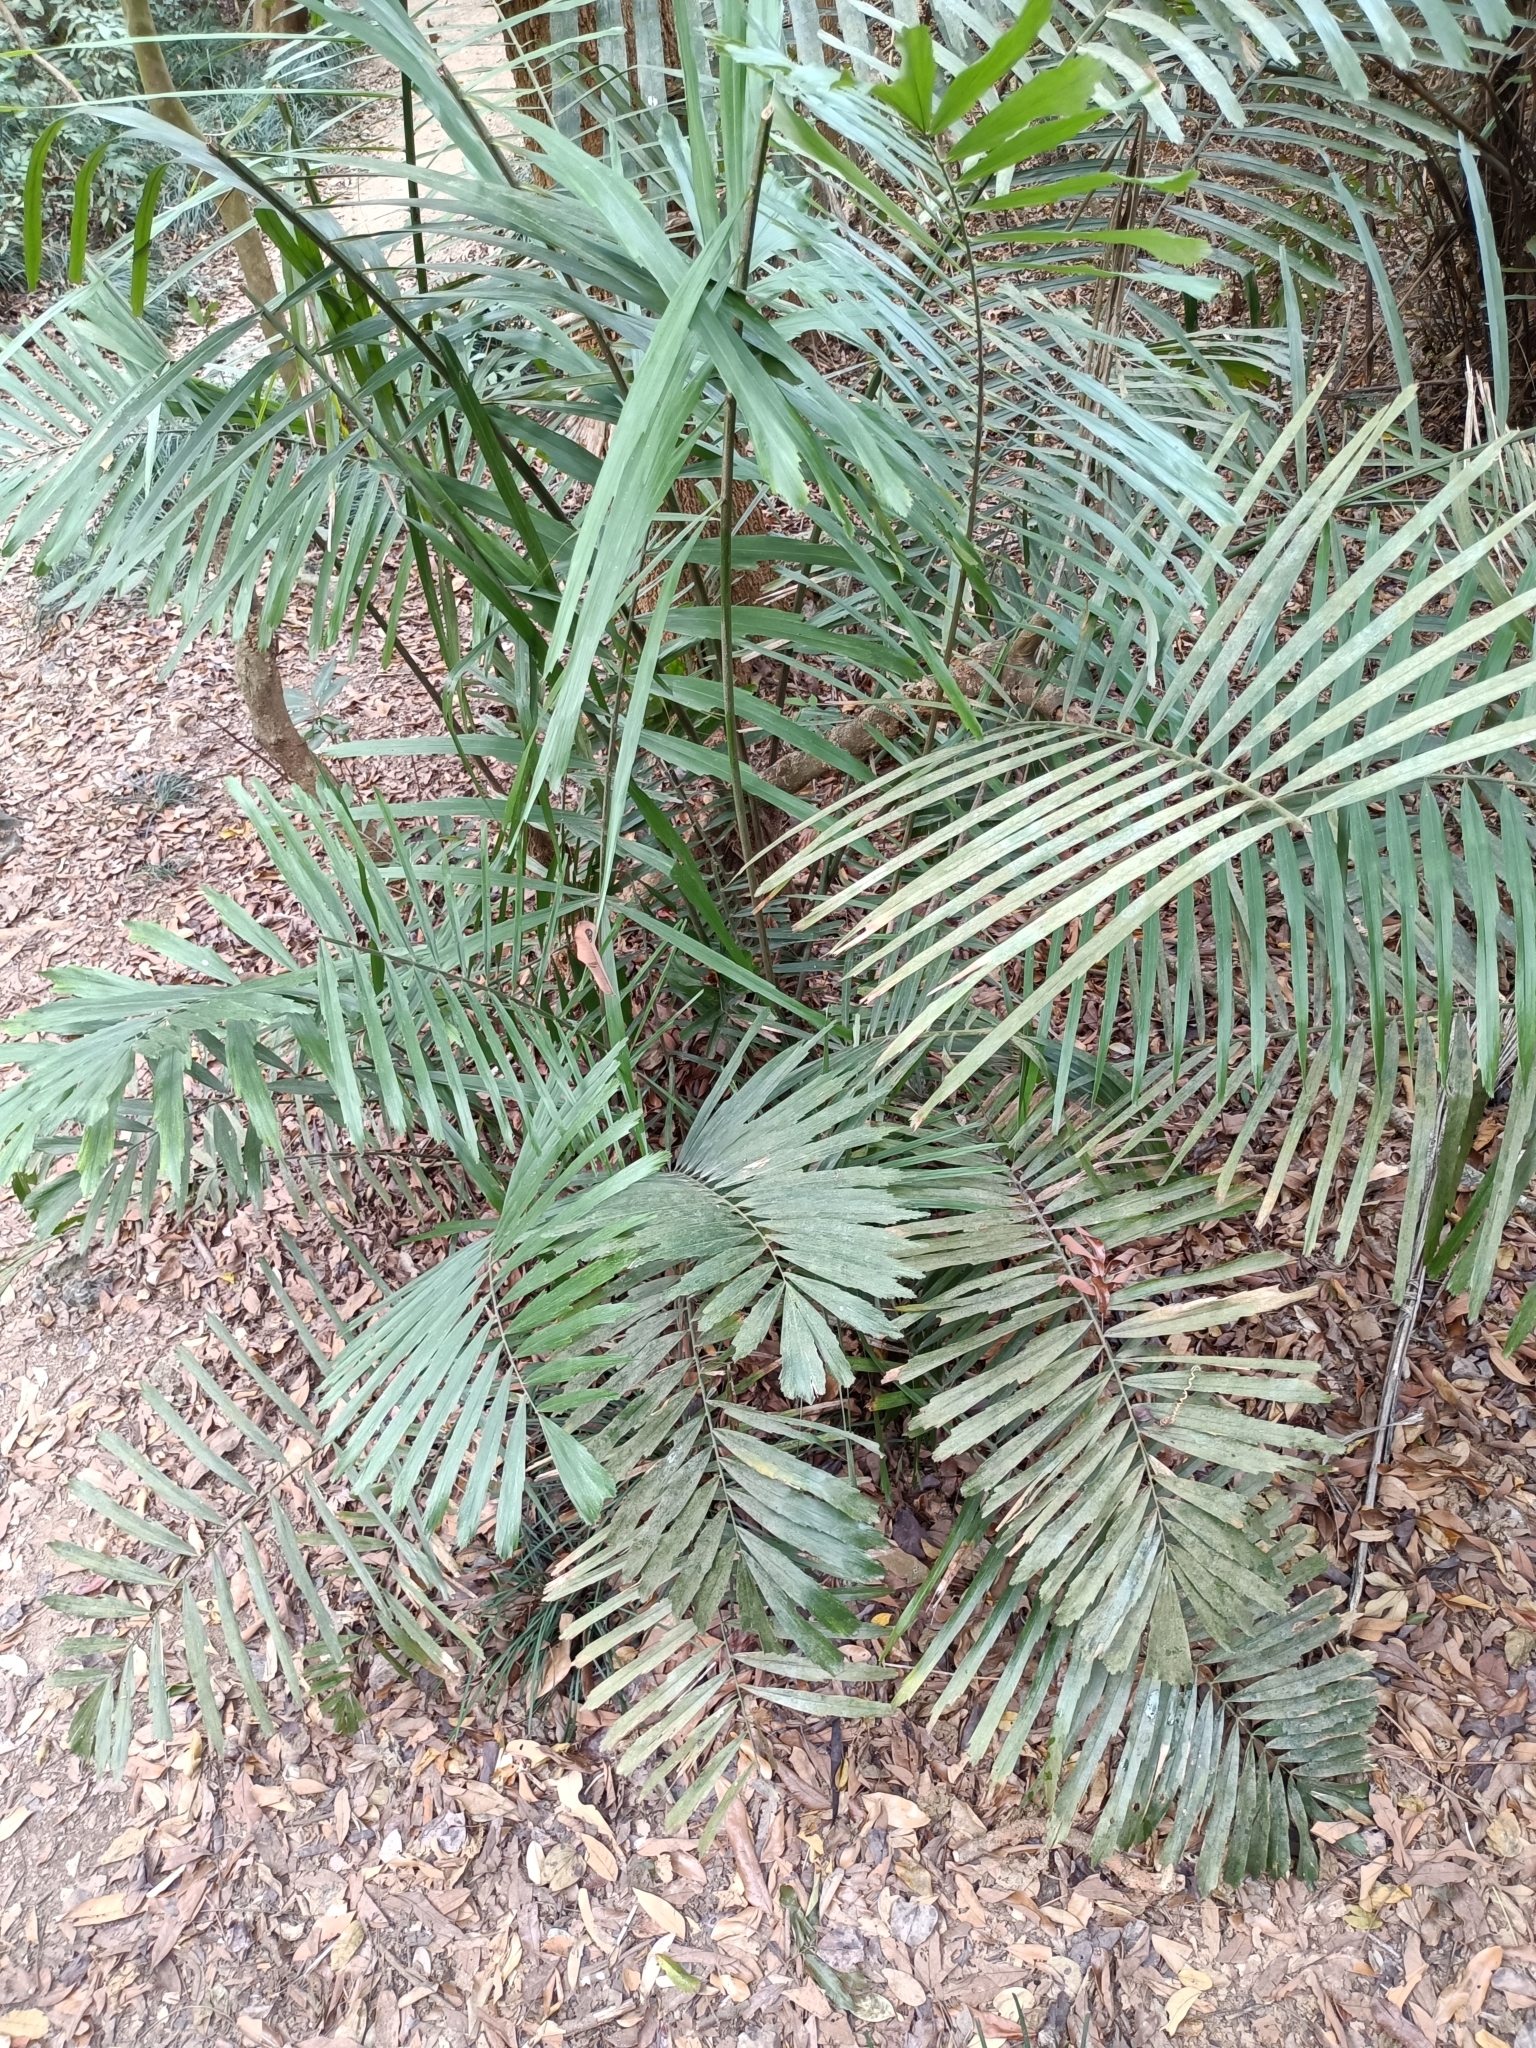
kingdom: Plantae
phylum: Tracheophyta
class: Liliopsida
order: Arecales
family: Arecaceae
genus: Arenga
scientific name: Arenga engleri
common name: Formosan sugar palm
